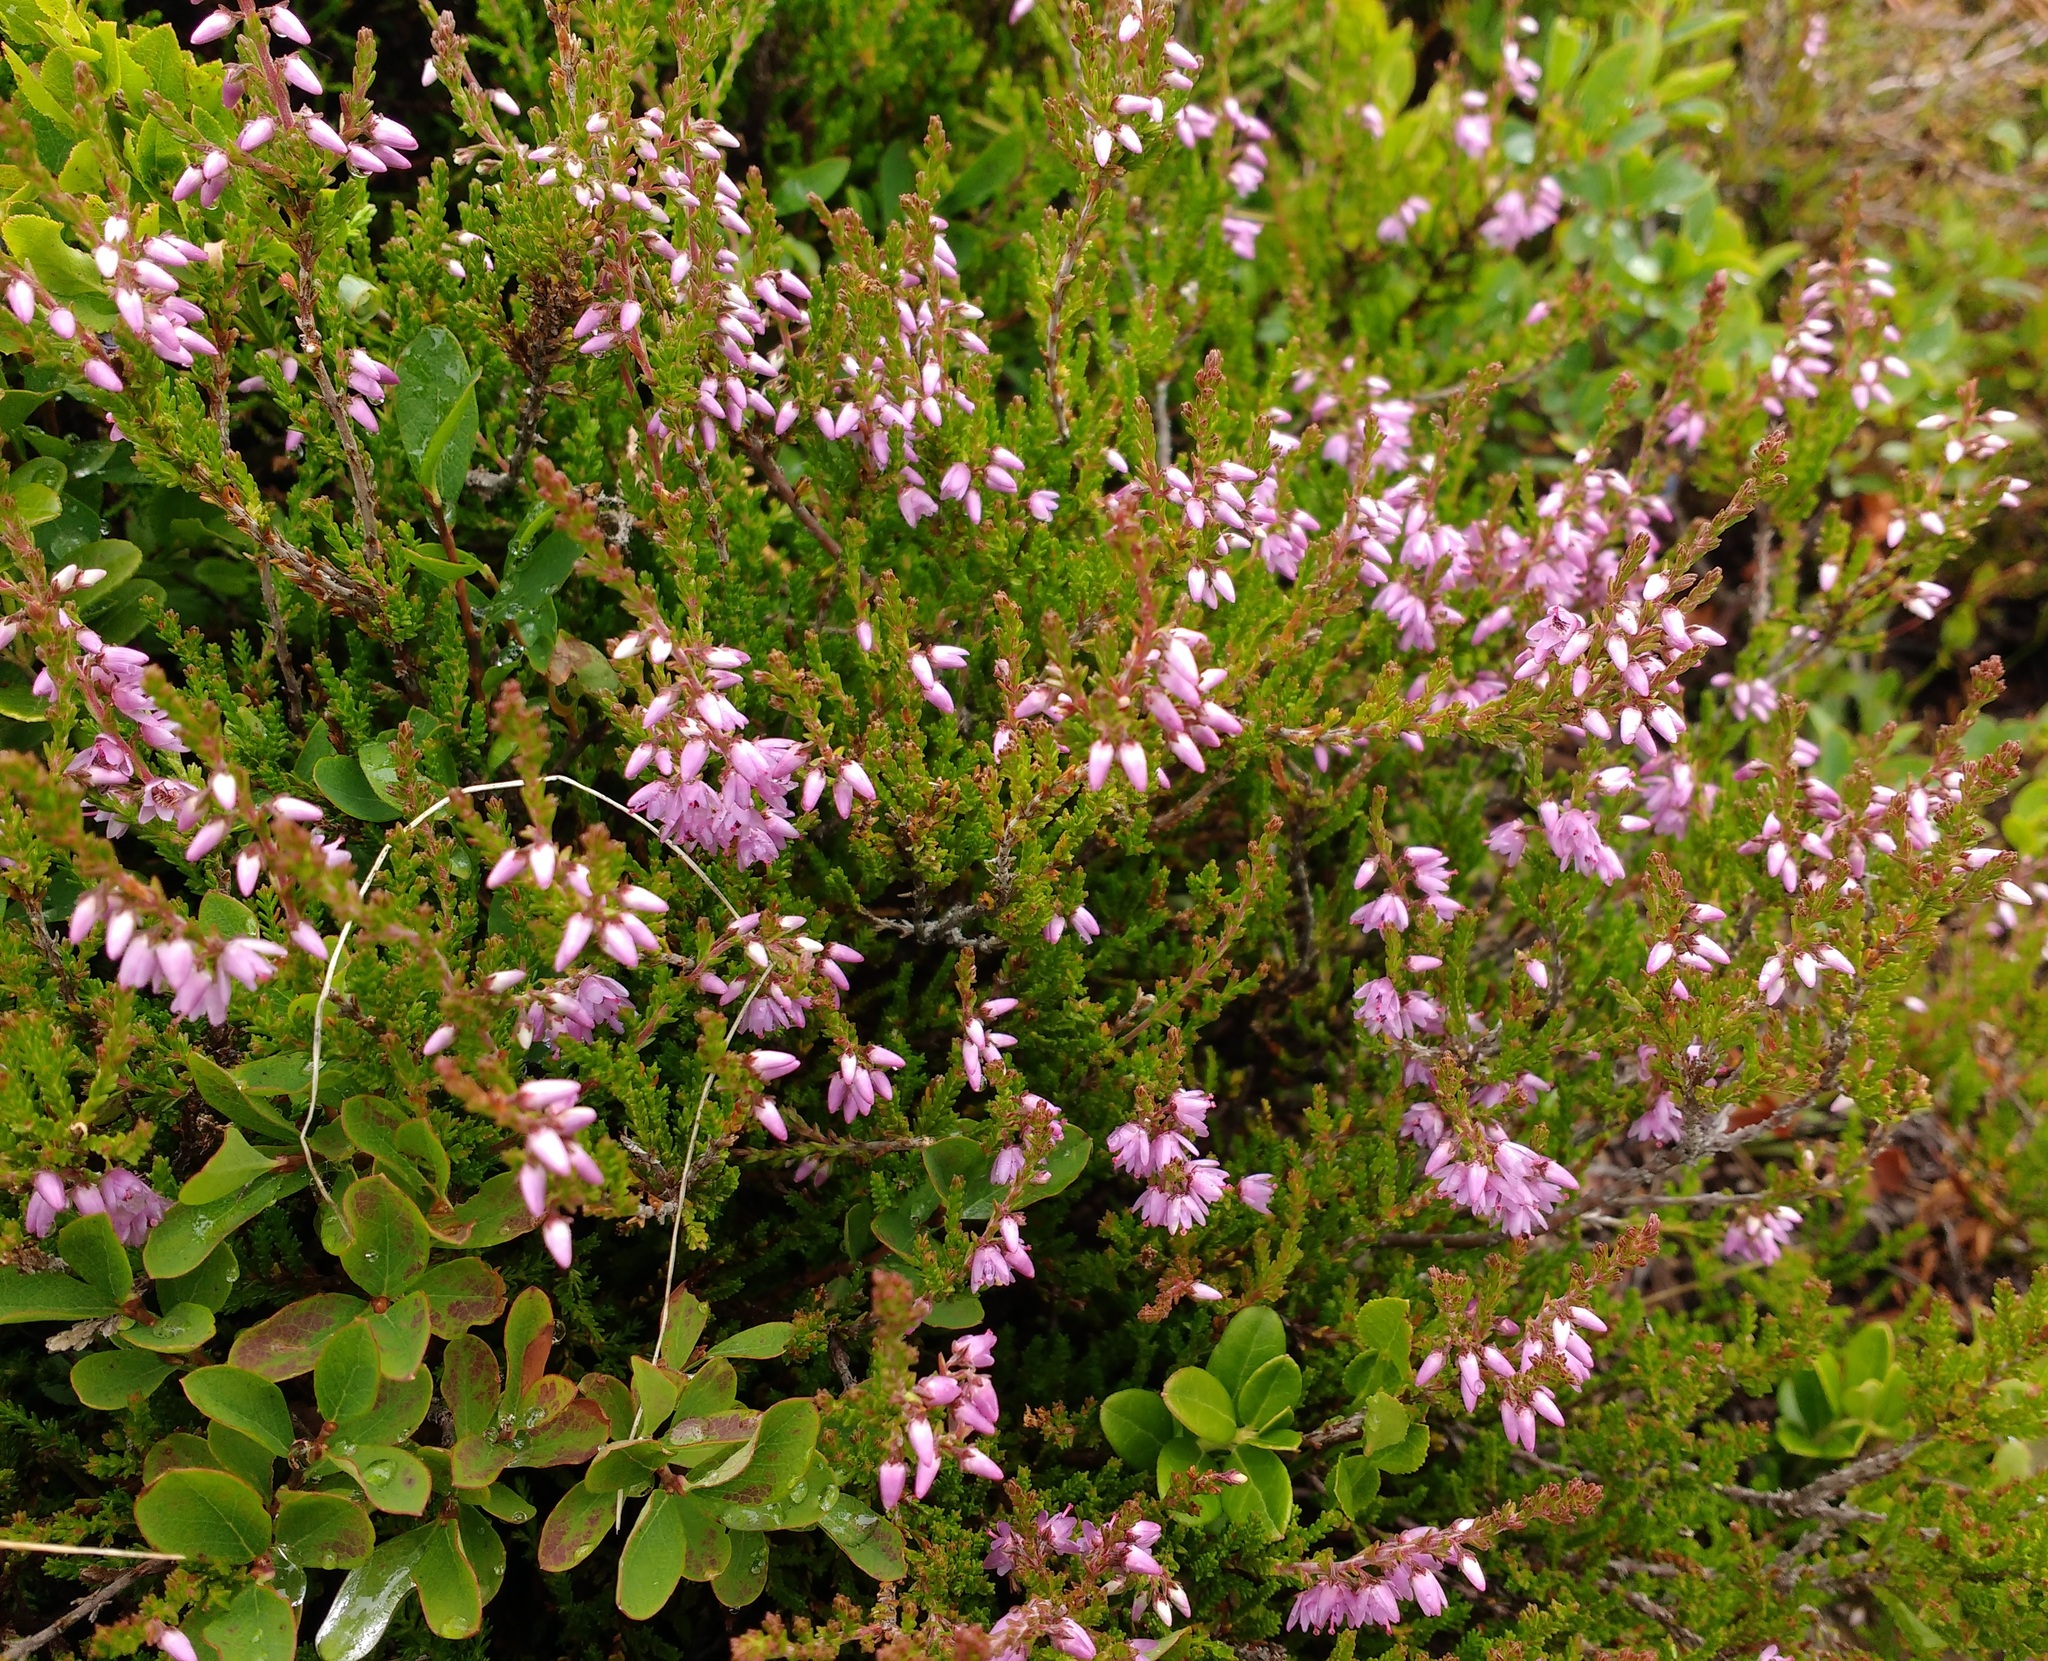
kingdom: Plantae
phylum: Tracheophyta
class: Magnoliopsida
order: Ericales
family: Ericaceae
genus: Calluna
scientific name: Calluna vulgaris
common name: Heather
